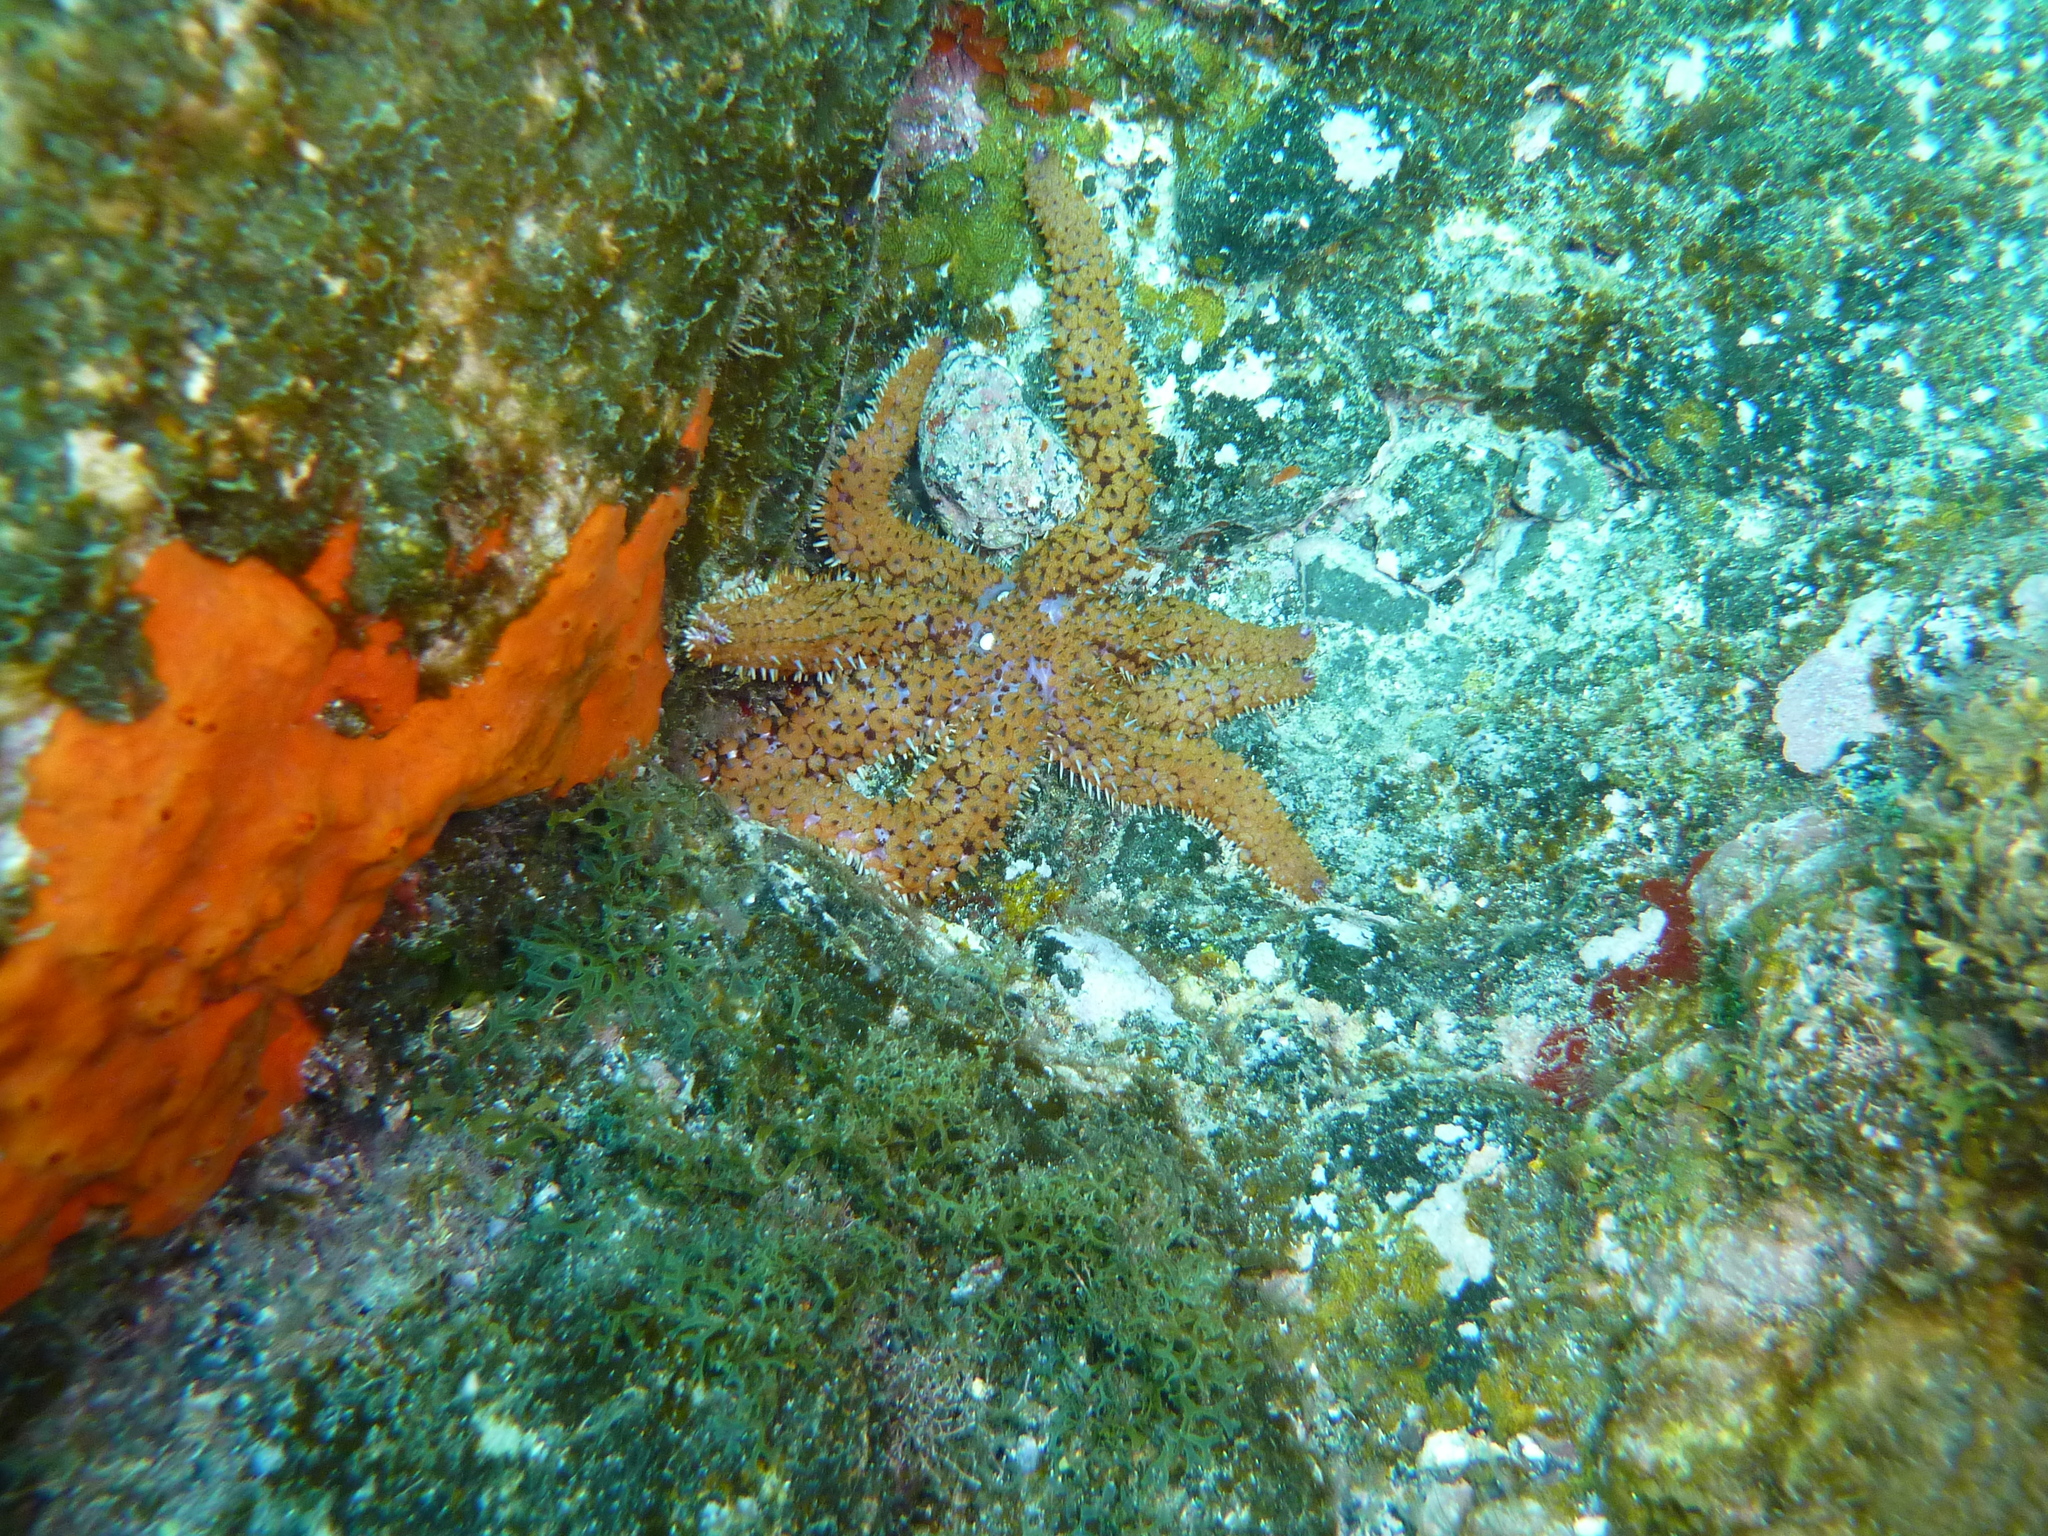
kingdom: Animalia
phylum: Echinodermata
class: Asteroidea
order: Forcipulatida
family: Asteriidae
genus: Coscinasterias
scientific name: Coscinasterias tenuispina
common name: Blue spiny starfish
